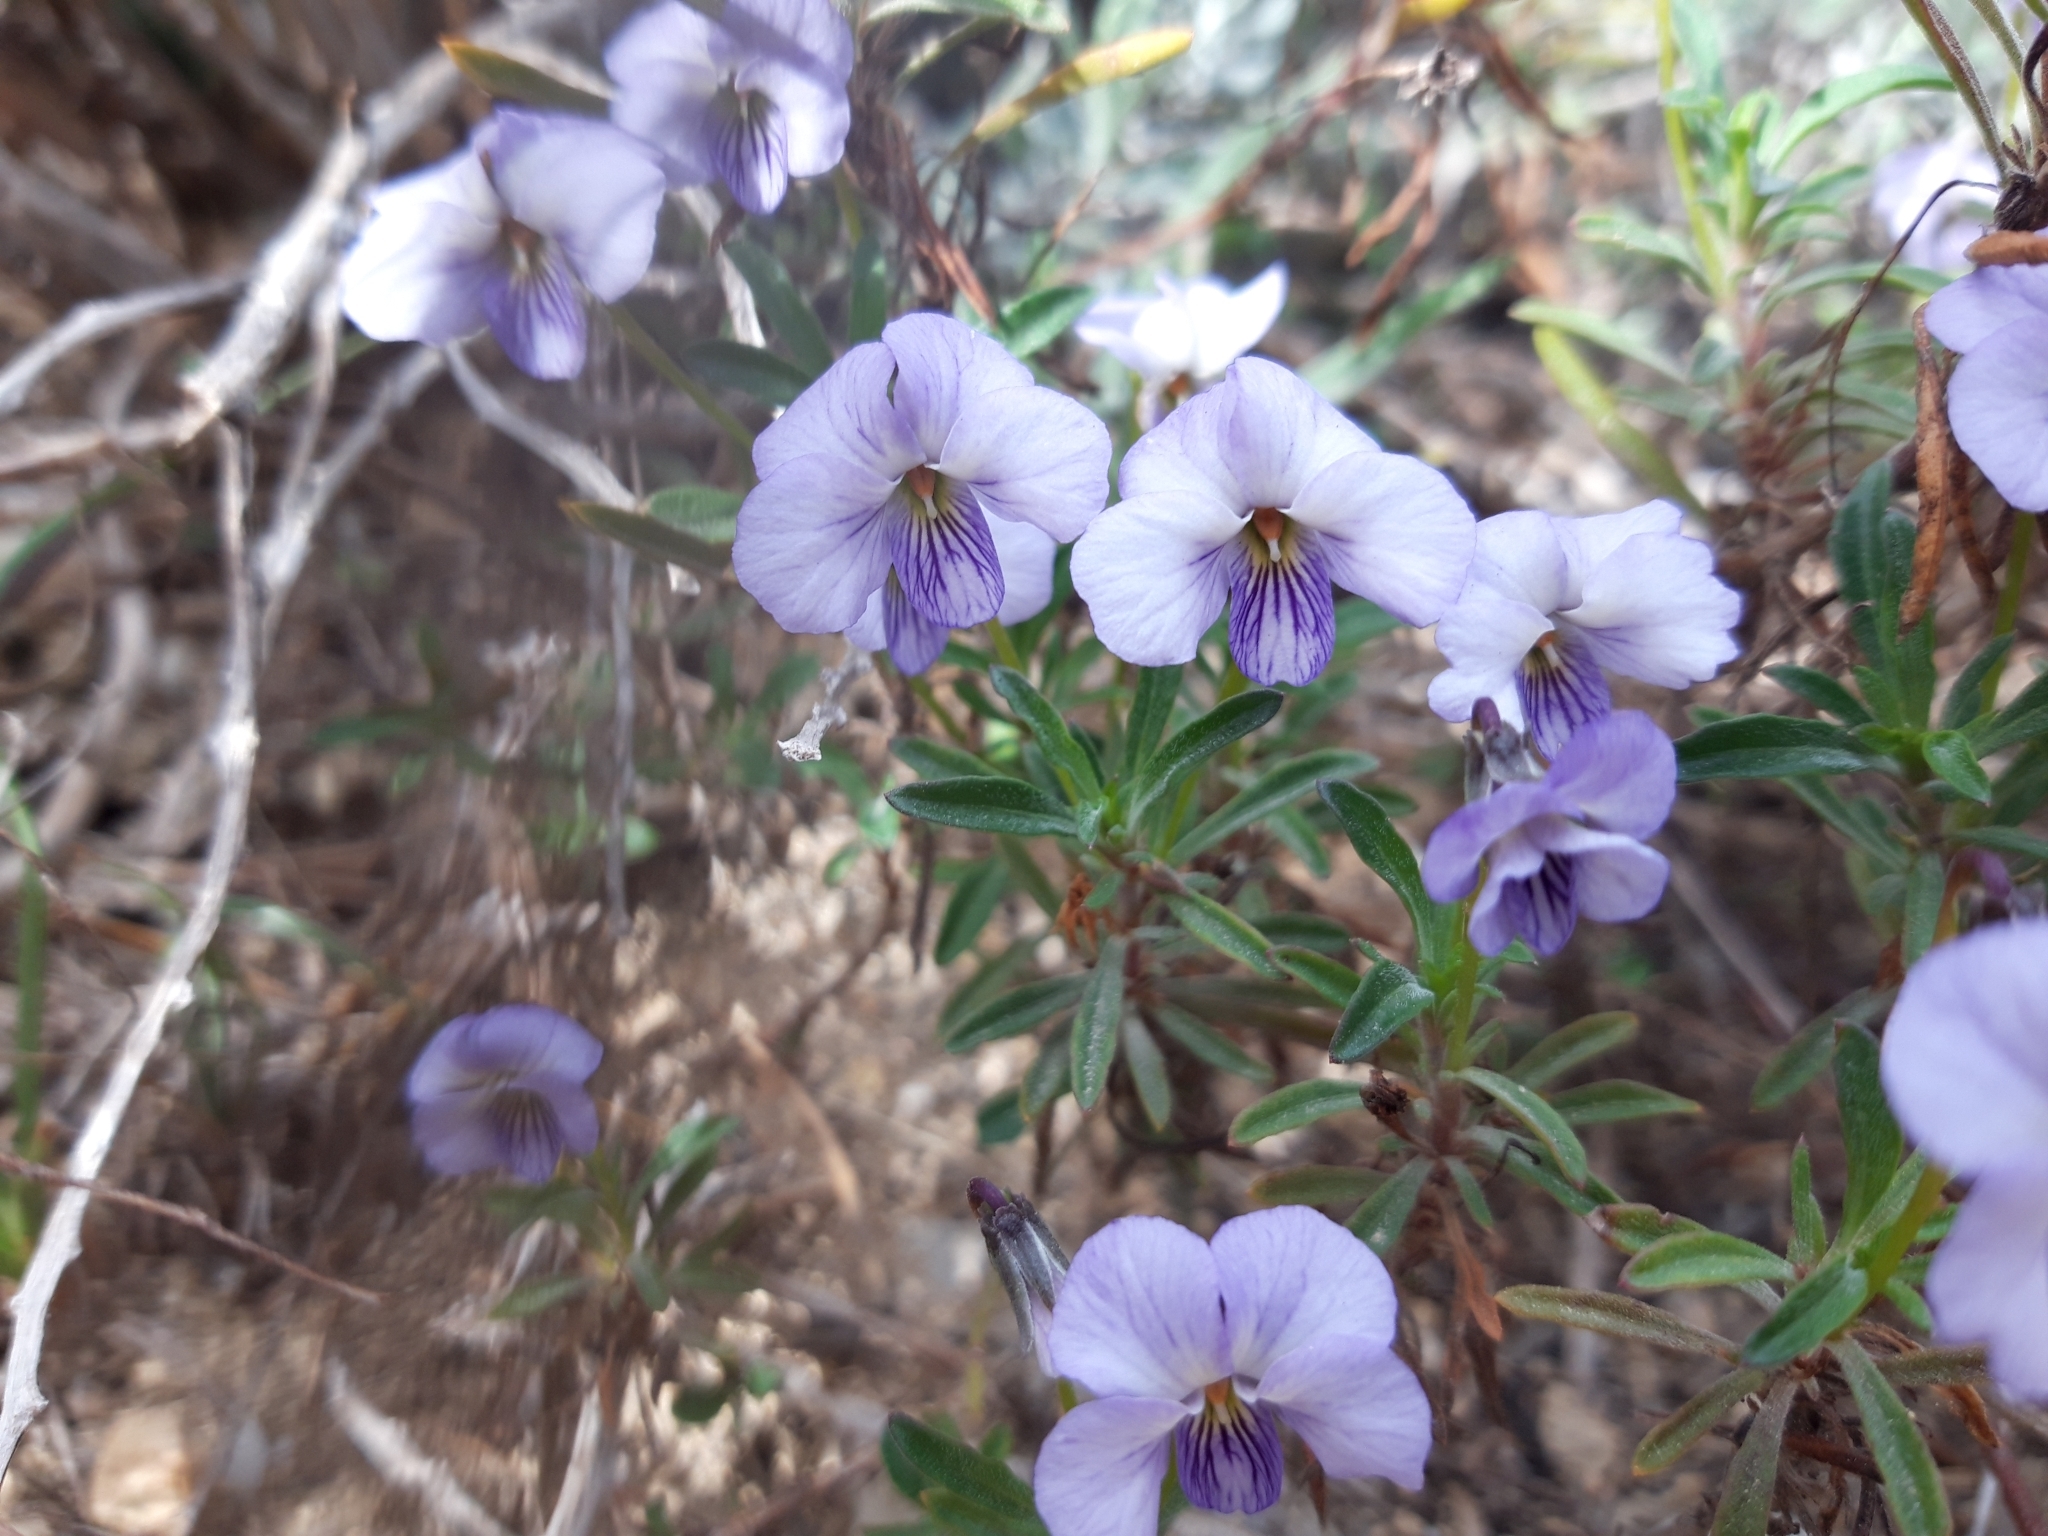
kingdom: Plantae
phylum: Tracheophyta
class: Magnoliopsida
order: Malpighiales
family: Violaceae
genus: Viola
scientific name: Viola arborescens
